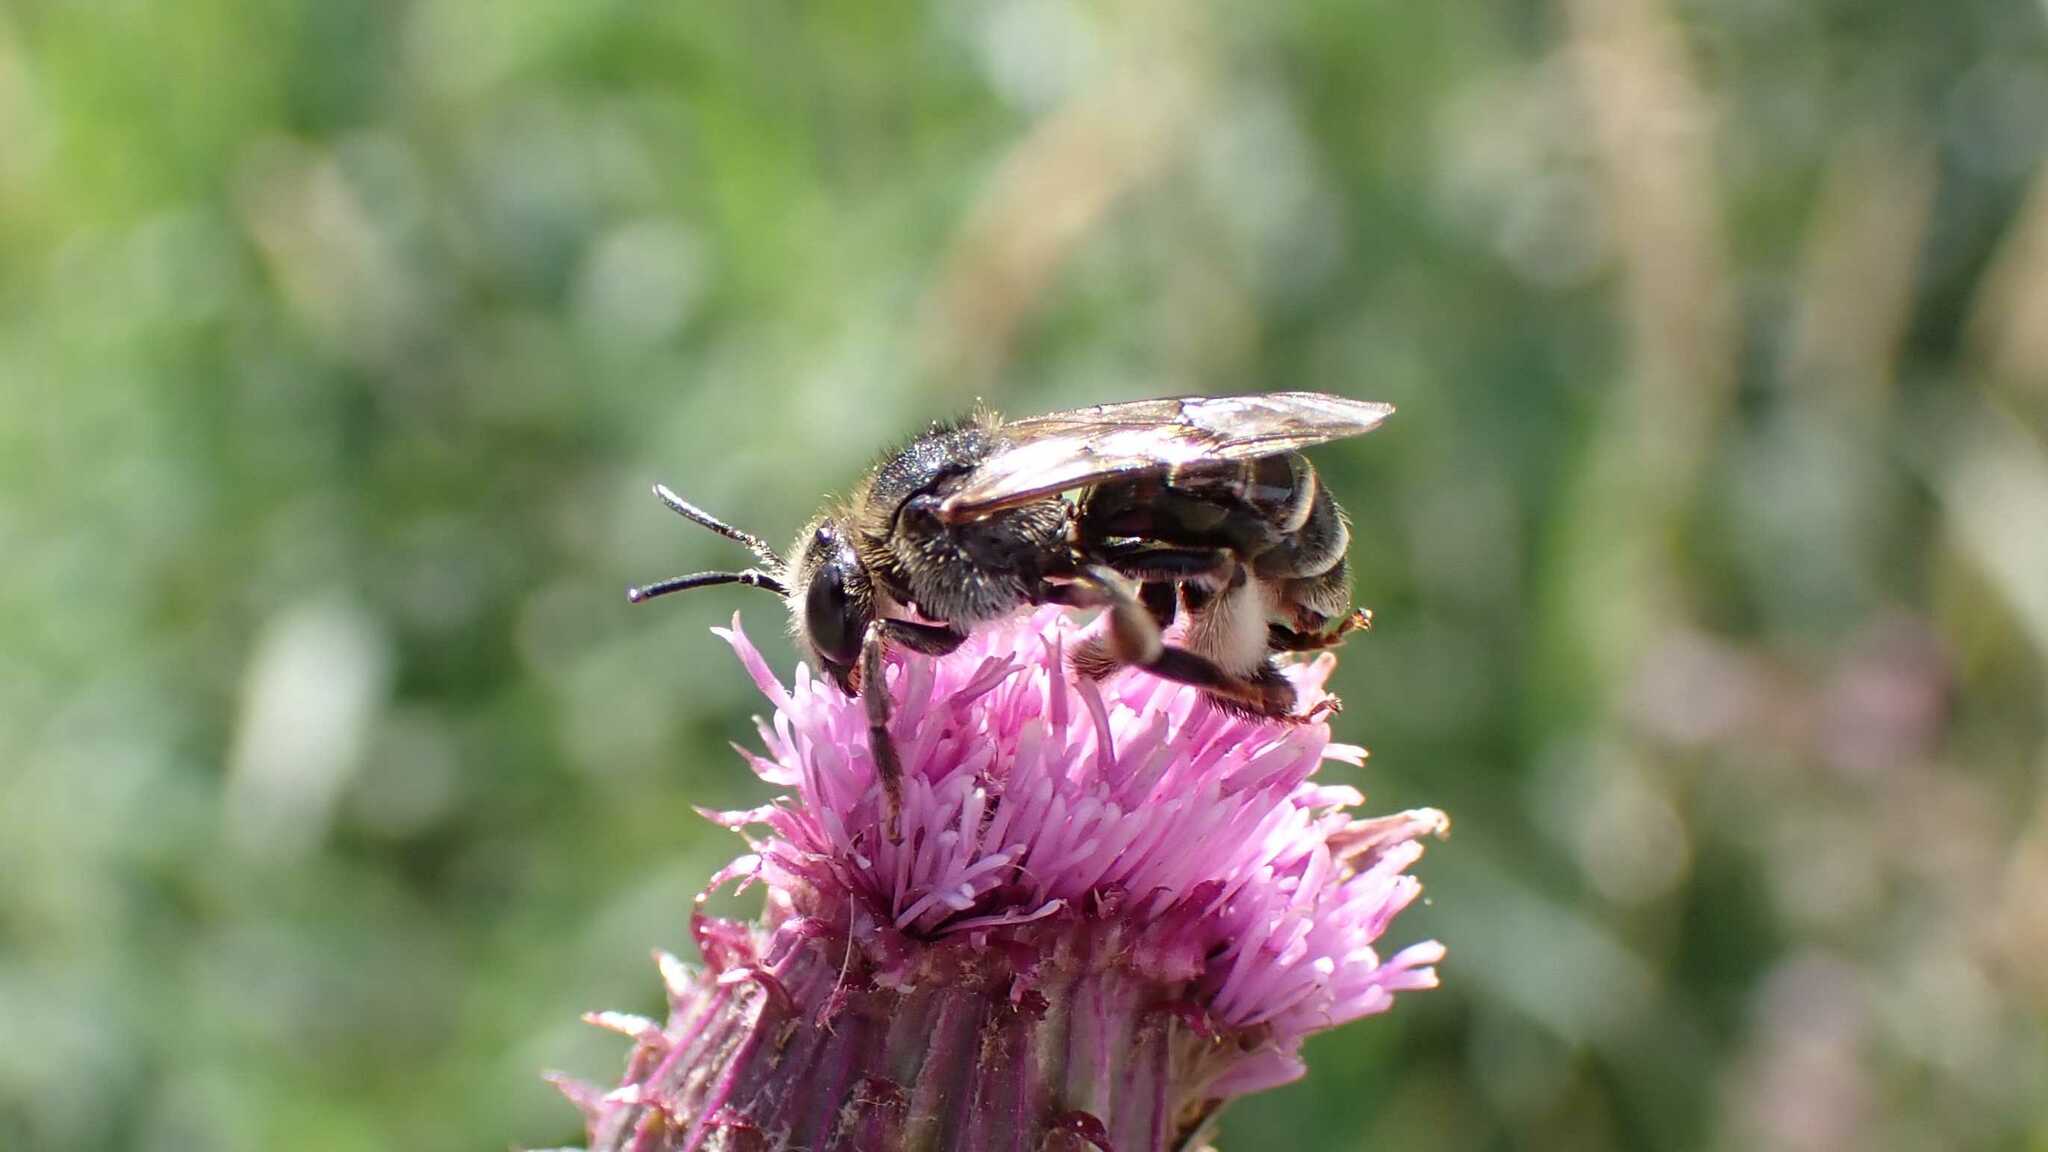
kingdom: Animalia
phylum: Arthropoda
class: Insecta
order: Hymenoptera
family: Melittidae
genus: Macropis
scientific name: Macropis europaea
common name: Yellow loosestrife bee
